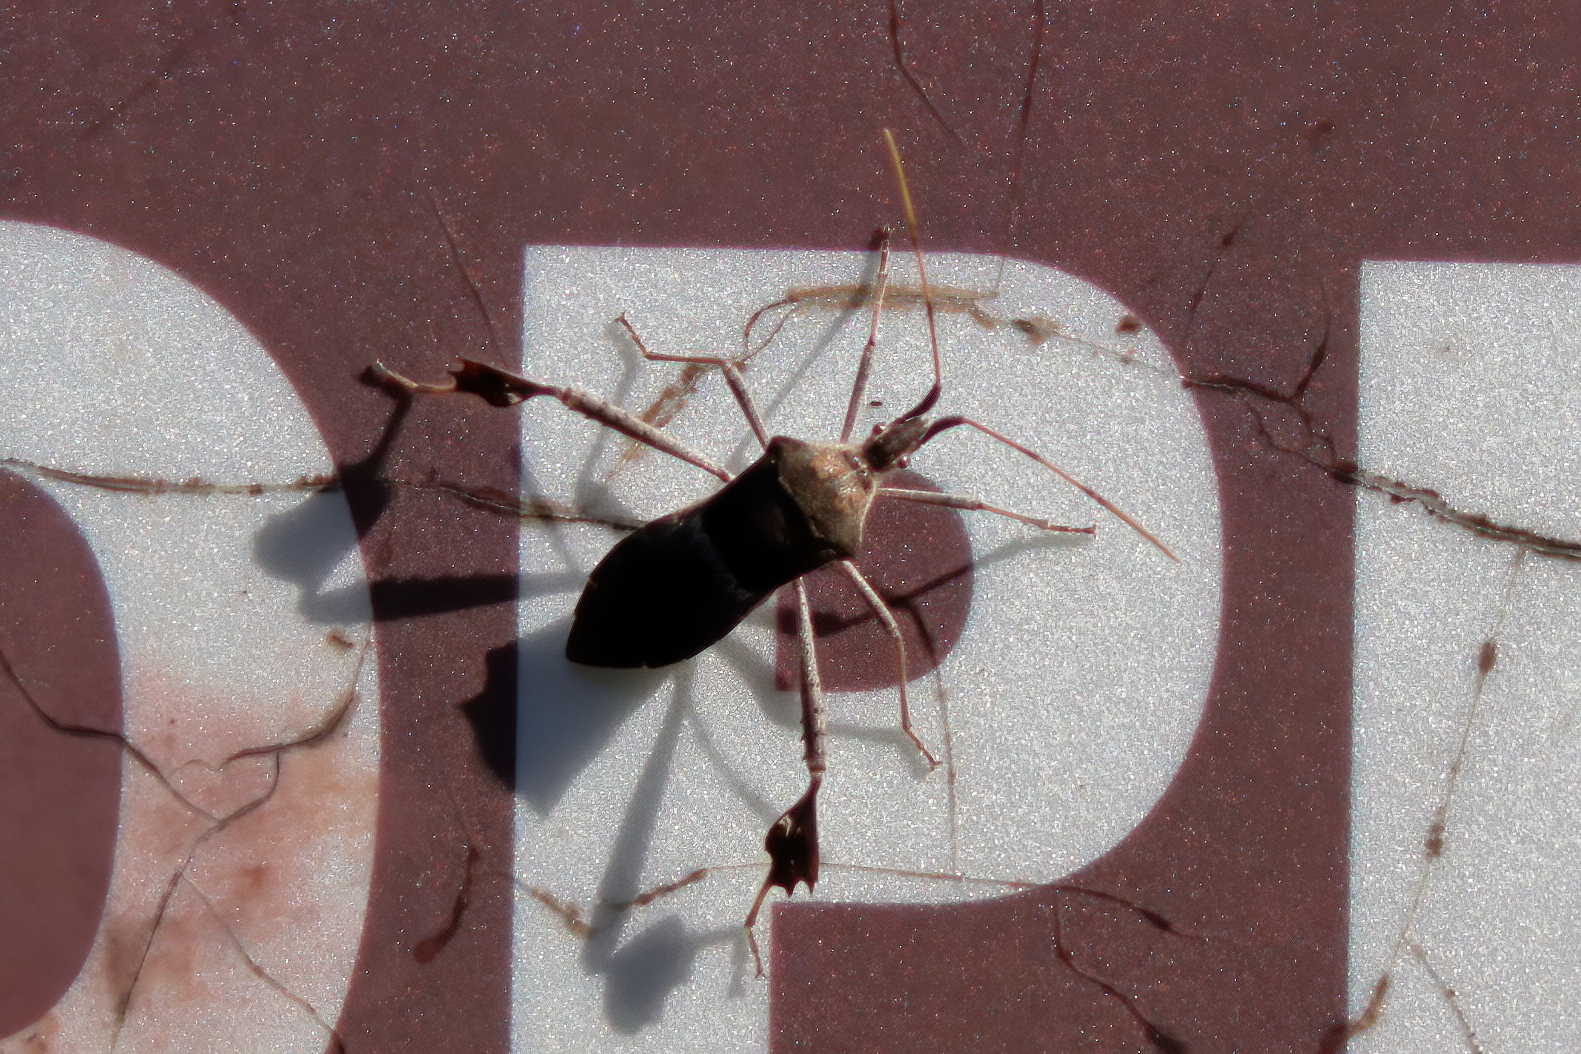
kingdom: Animalia
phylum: Arthropoda
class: Insecta
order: Hemiptera
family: Coreidae
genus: Leptoglossus
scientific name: Leptoglossus zonatus
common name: Large-legged bug
